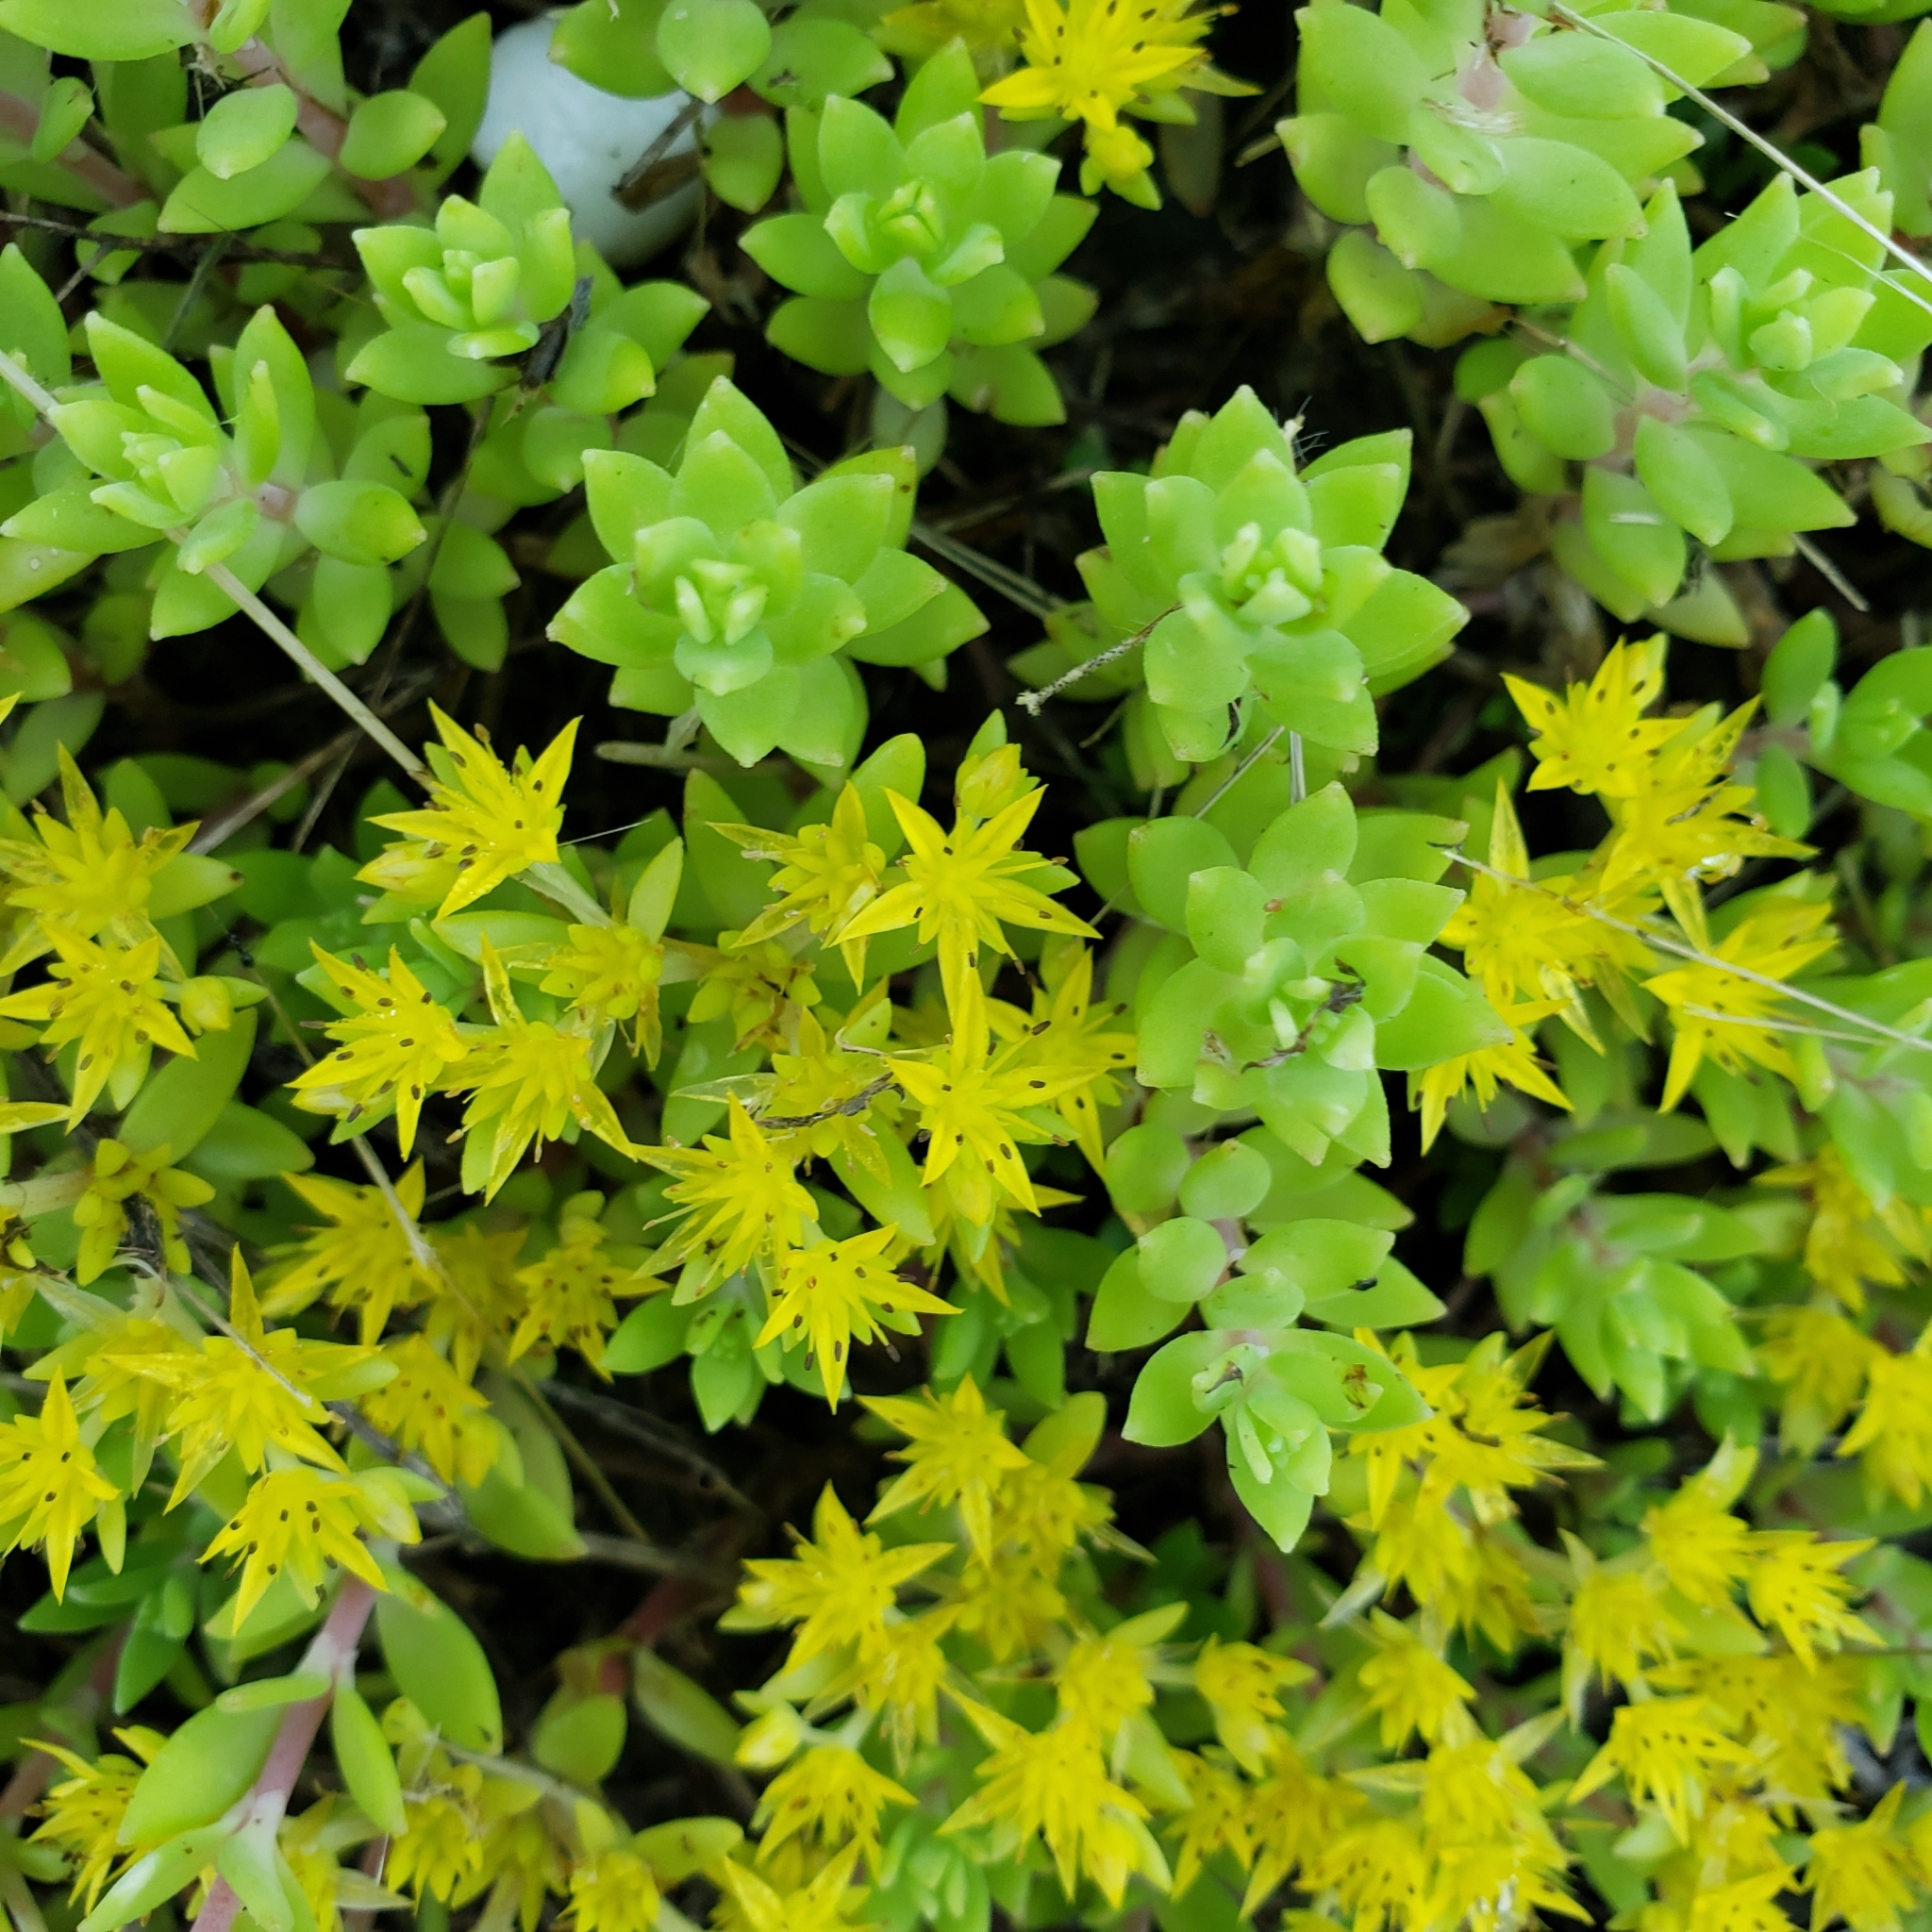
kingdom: Plantae
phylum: Tracheophyta
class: Magnoliopsida
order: Saxifragales
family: Crassulaceae
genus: Sedum
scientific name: Sedum sarmentosum
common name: Stringy stonecrop
